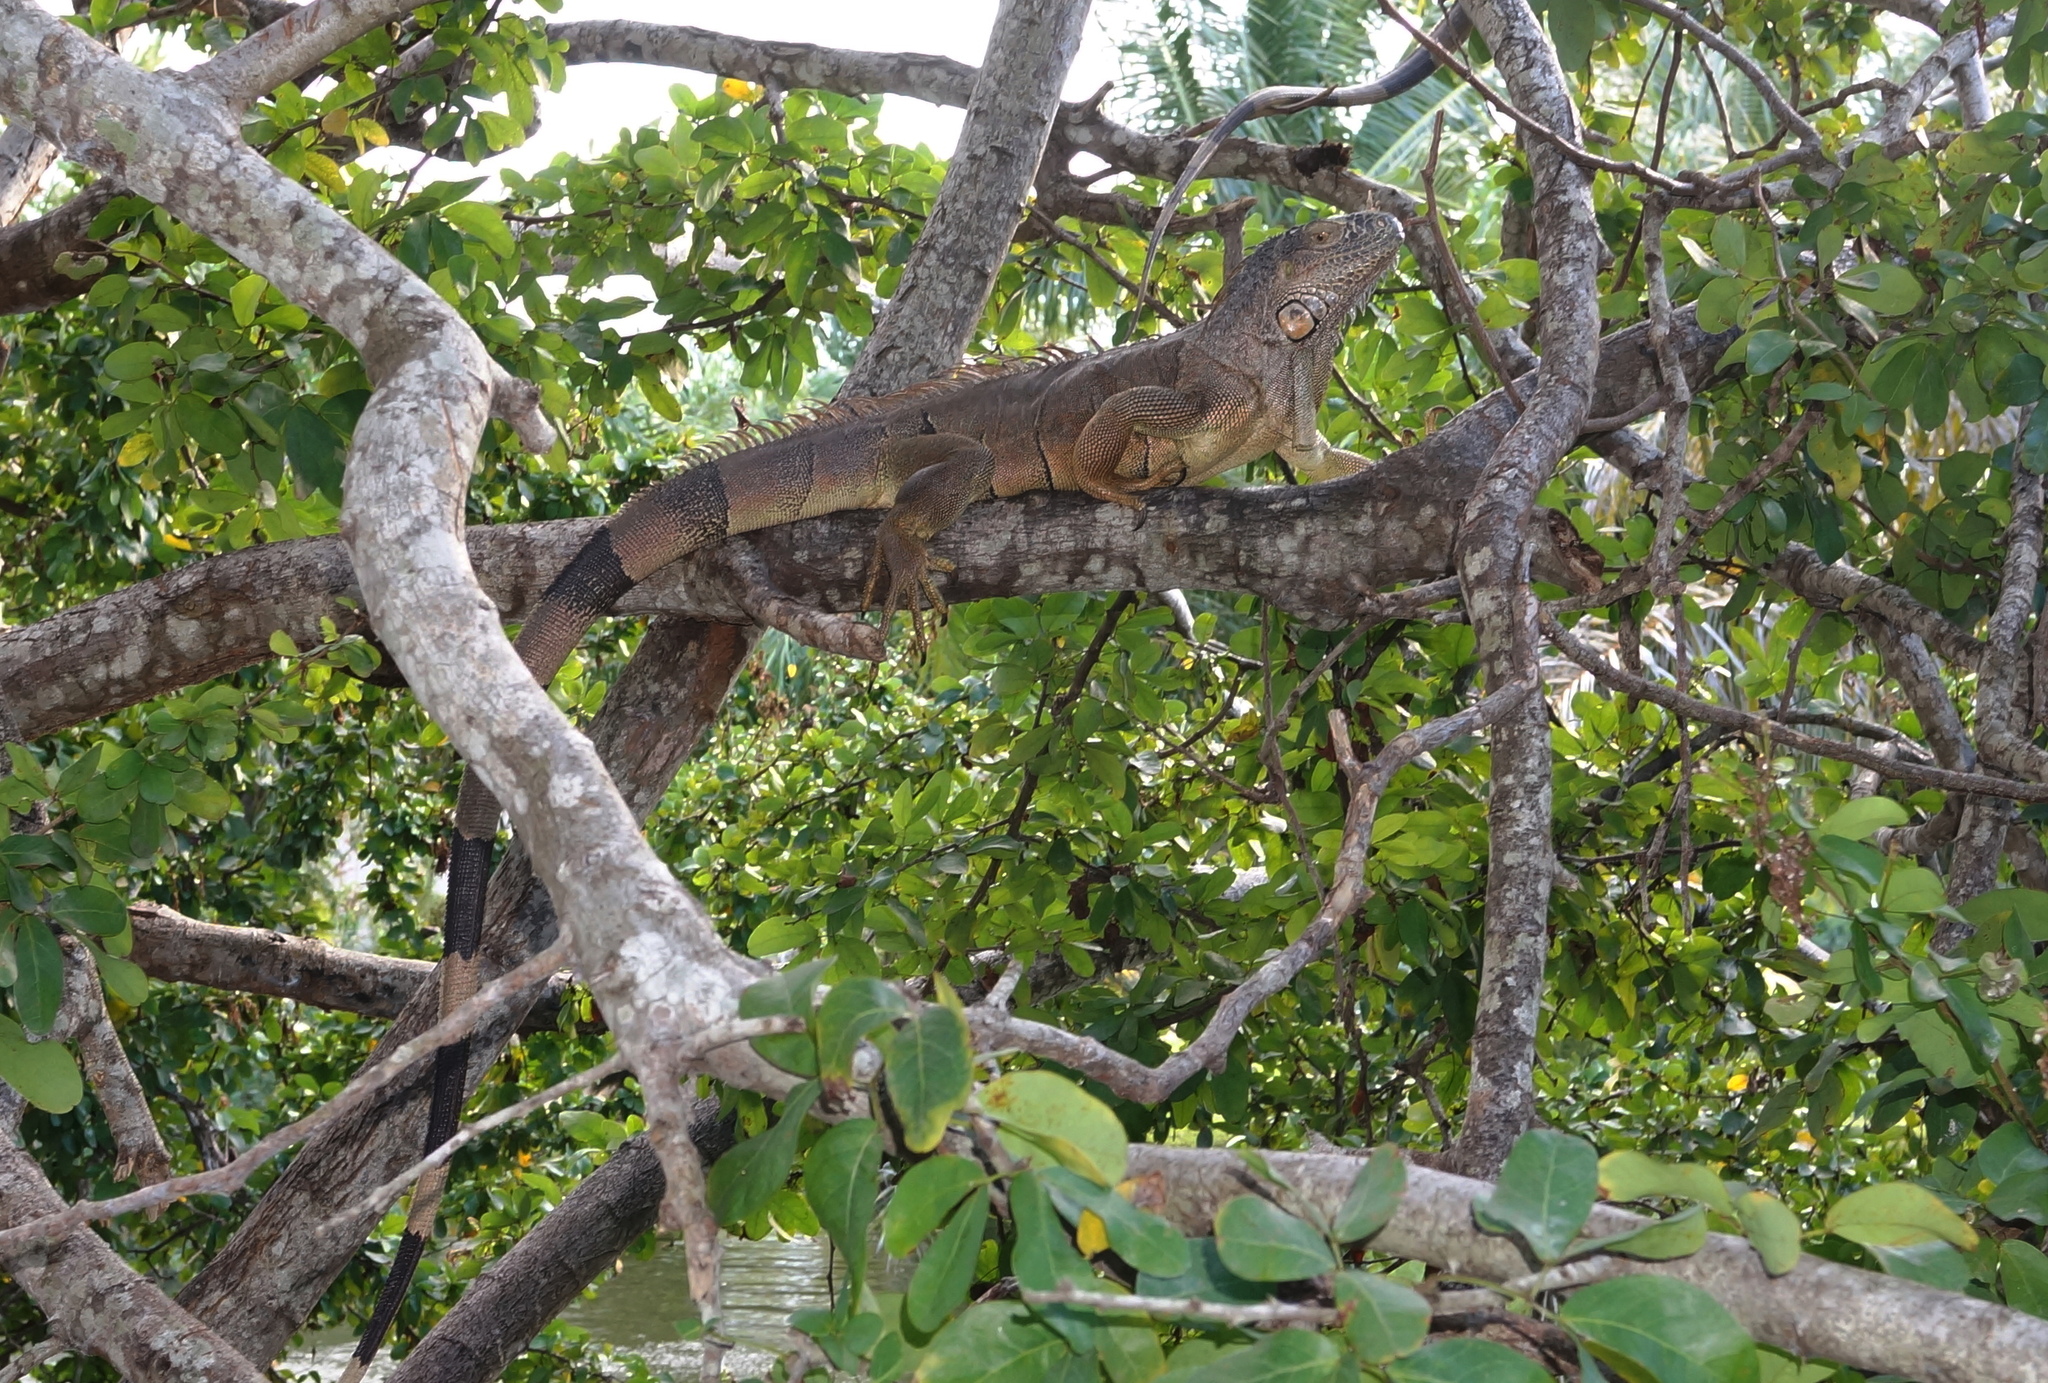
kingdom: Animalia
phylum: Chordata
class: Squamata
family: Iguanidae
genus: Iguana
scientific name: Iguana iguana
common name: Green iguana
